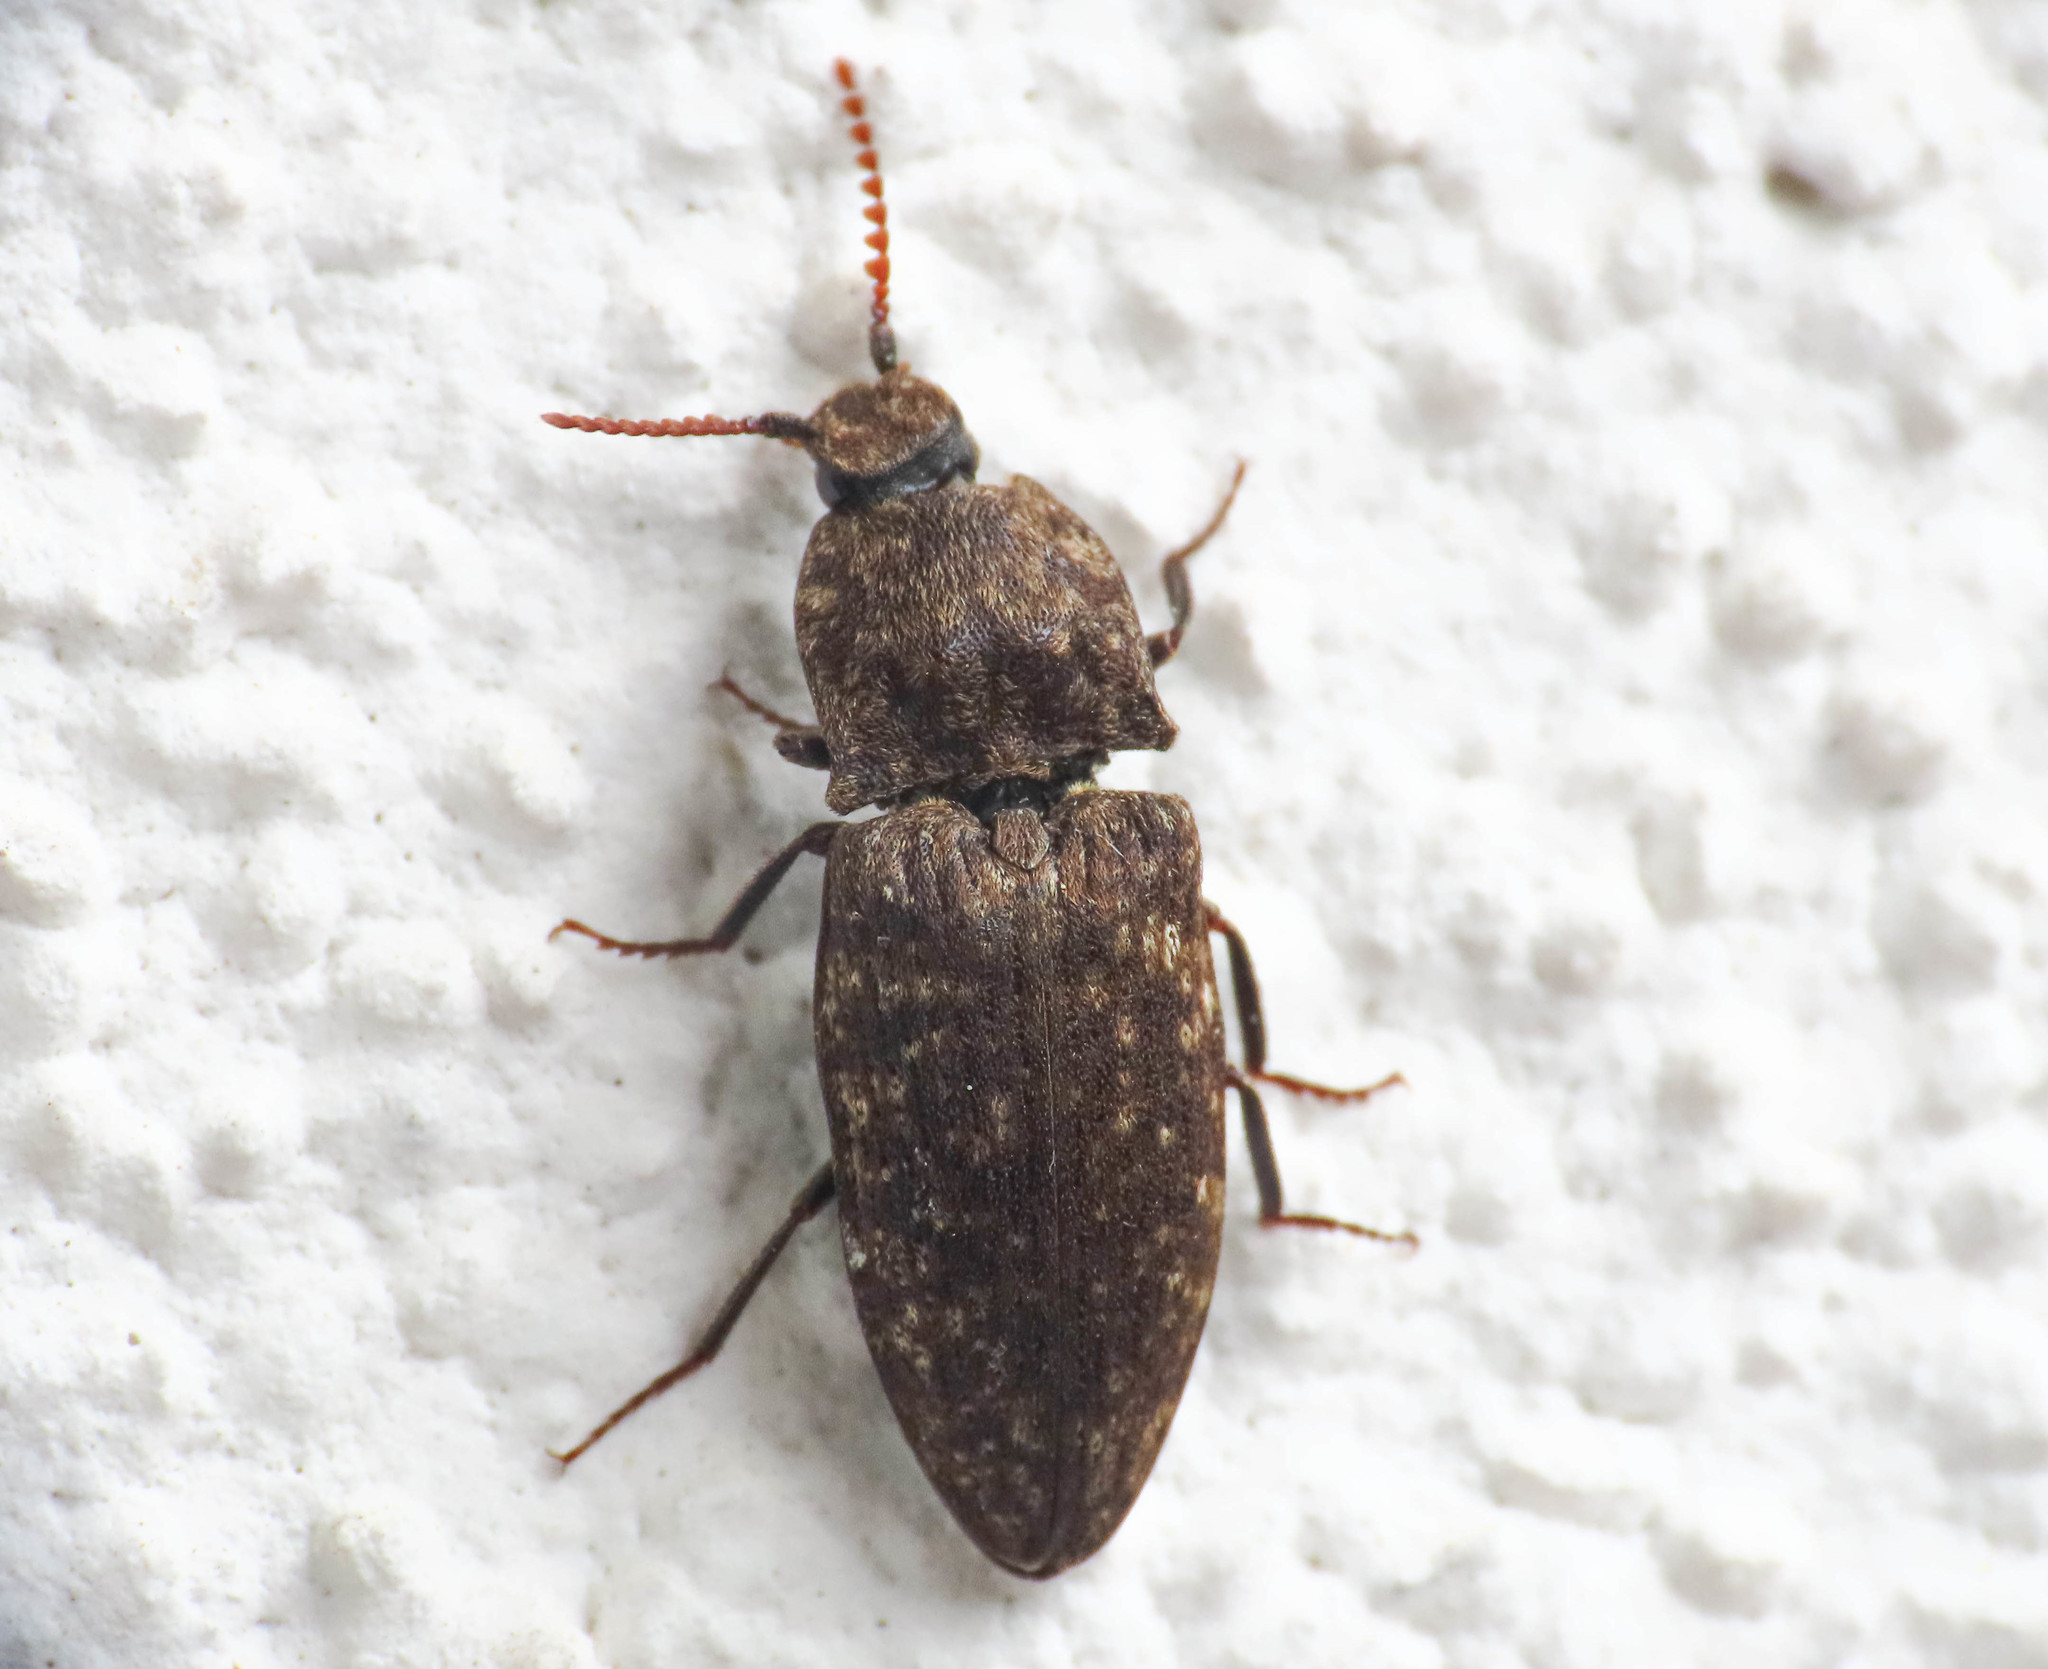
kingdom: Animalia
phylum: Arthropoda
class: Insecta
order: Coleoptera
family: Elateridae
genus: Agrypnus
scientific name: Agrypnus murinus
